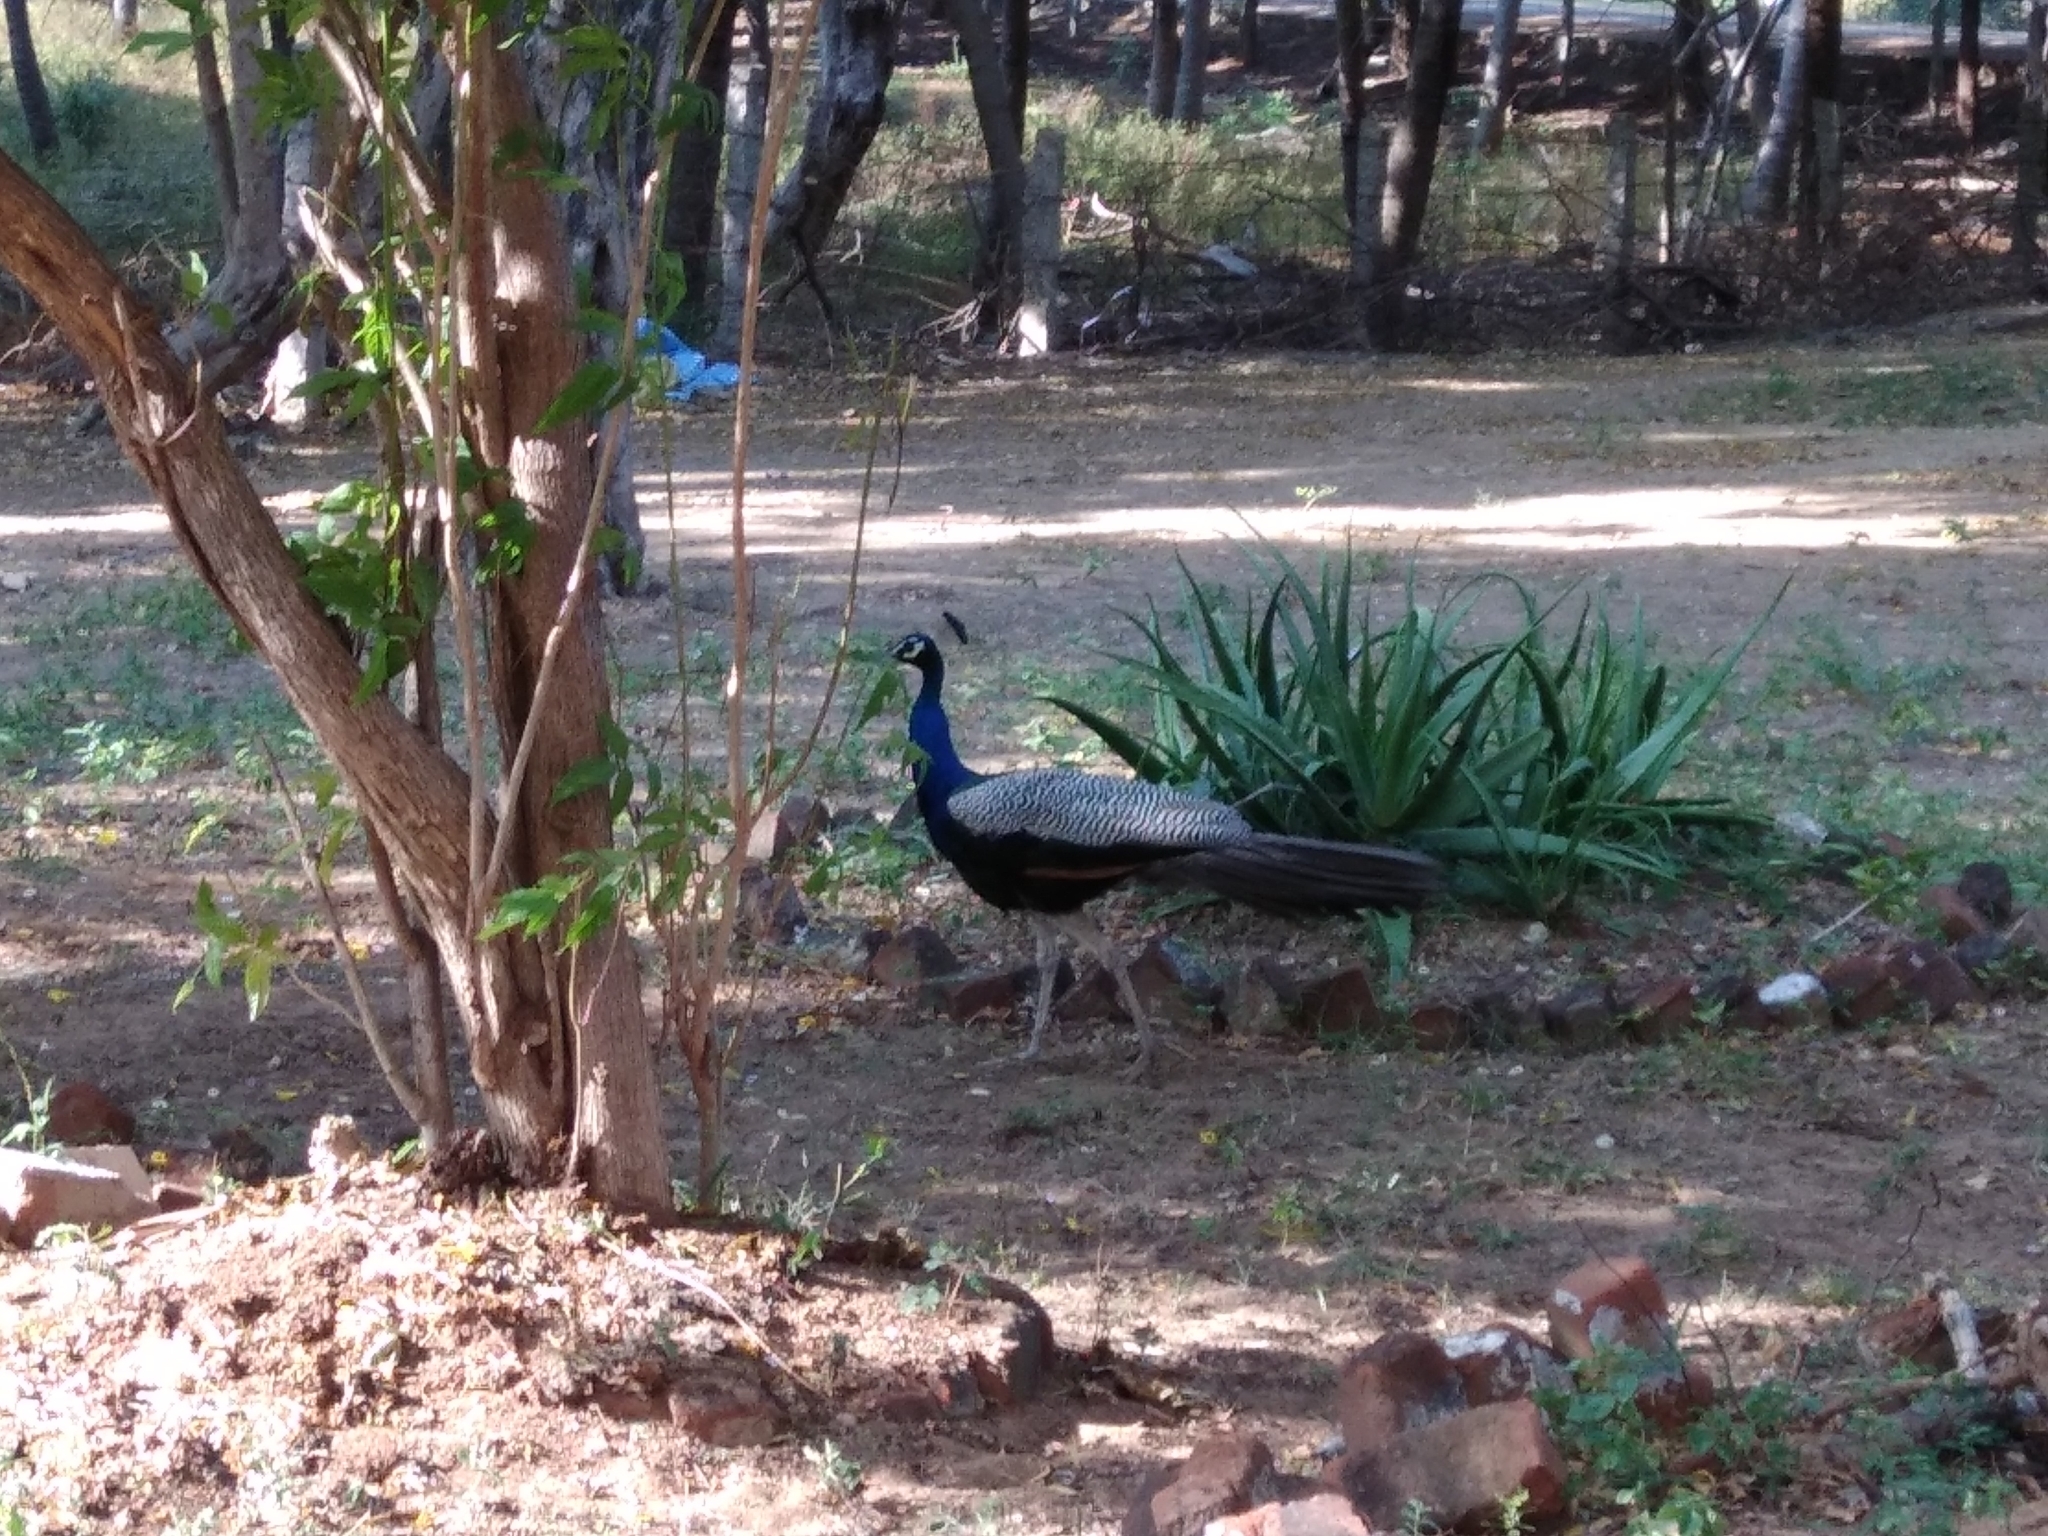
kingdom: Animalia
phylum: Chordata
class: Aves
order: Galliformes
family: Phasianidae
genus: Pavo
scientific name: Pavo cristatus
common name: Indian peafowl
